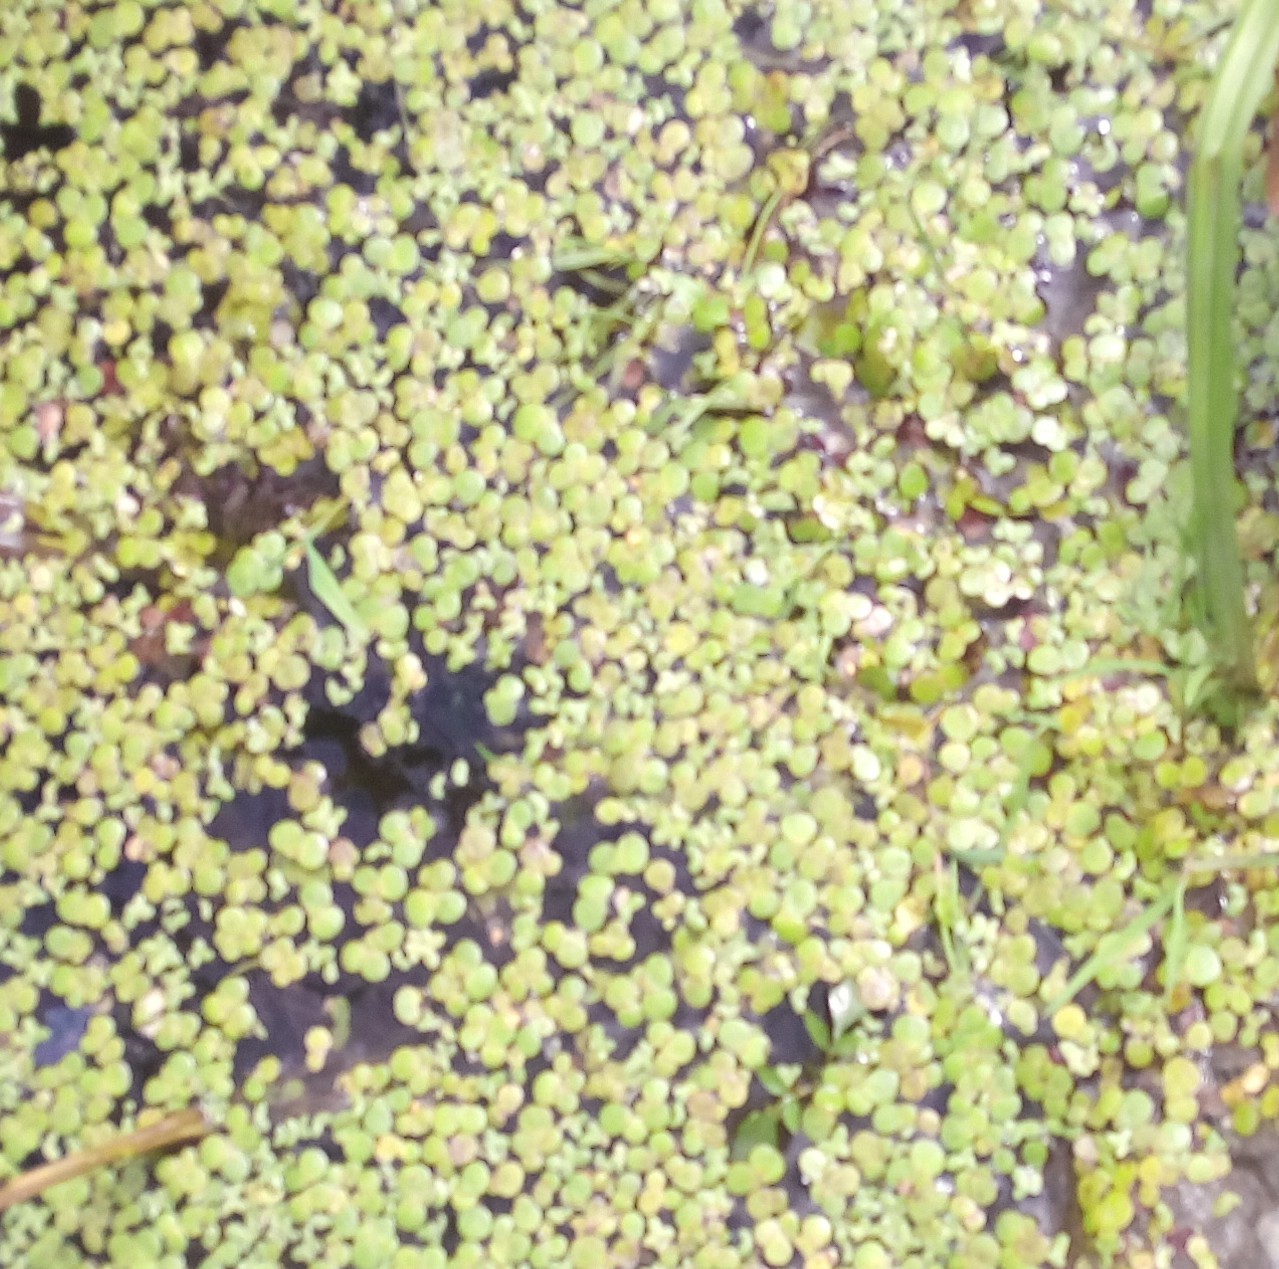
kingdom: Plantae
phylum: Tracheophyta
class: Liliopsida
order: Alismatales
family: Araceae
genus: Spirodela
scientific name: Spirodela polyrhiza
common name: Great duckweed
